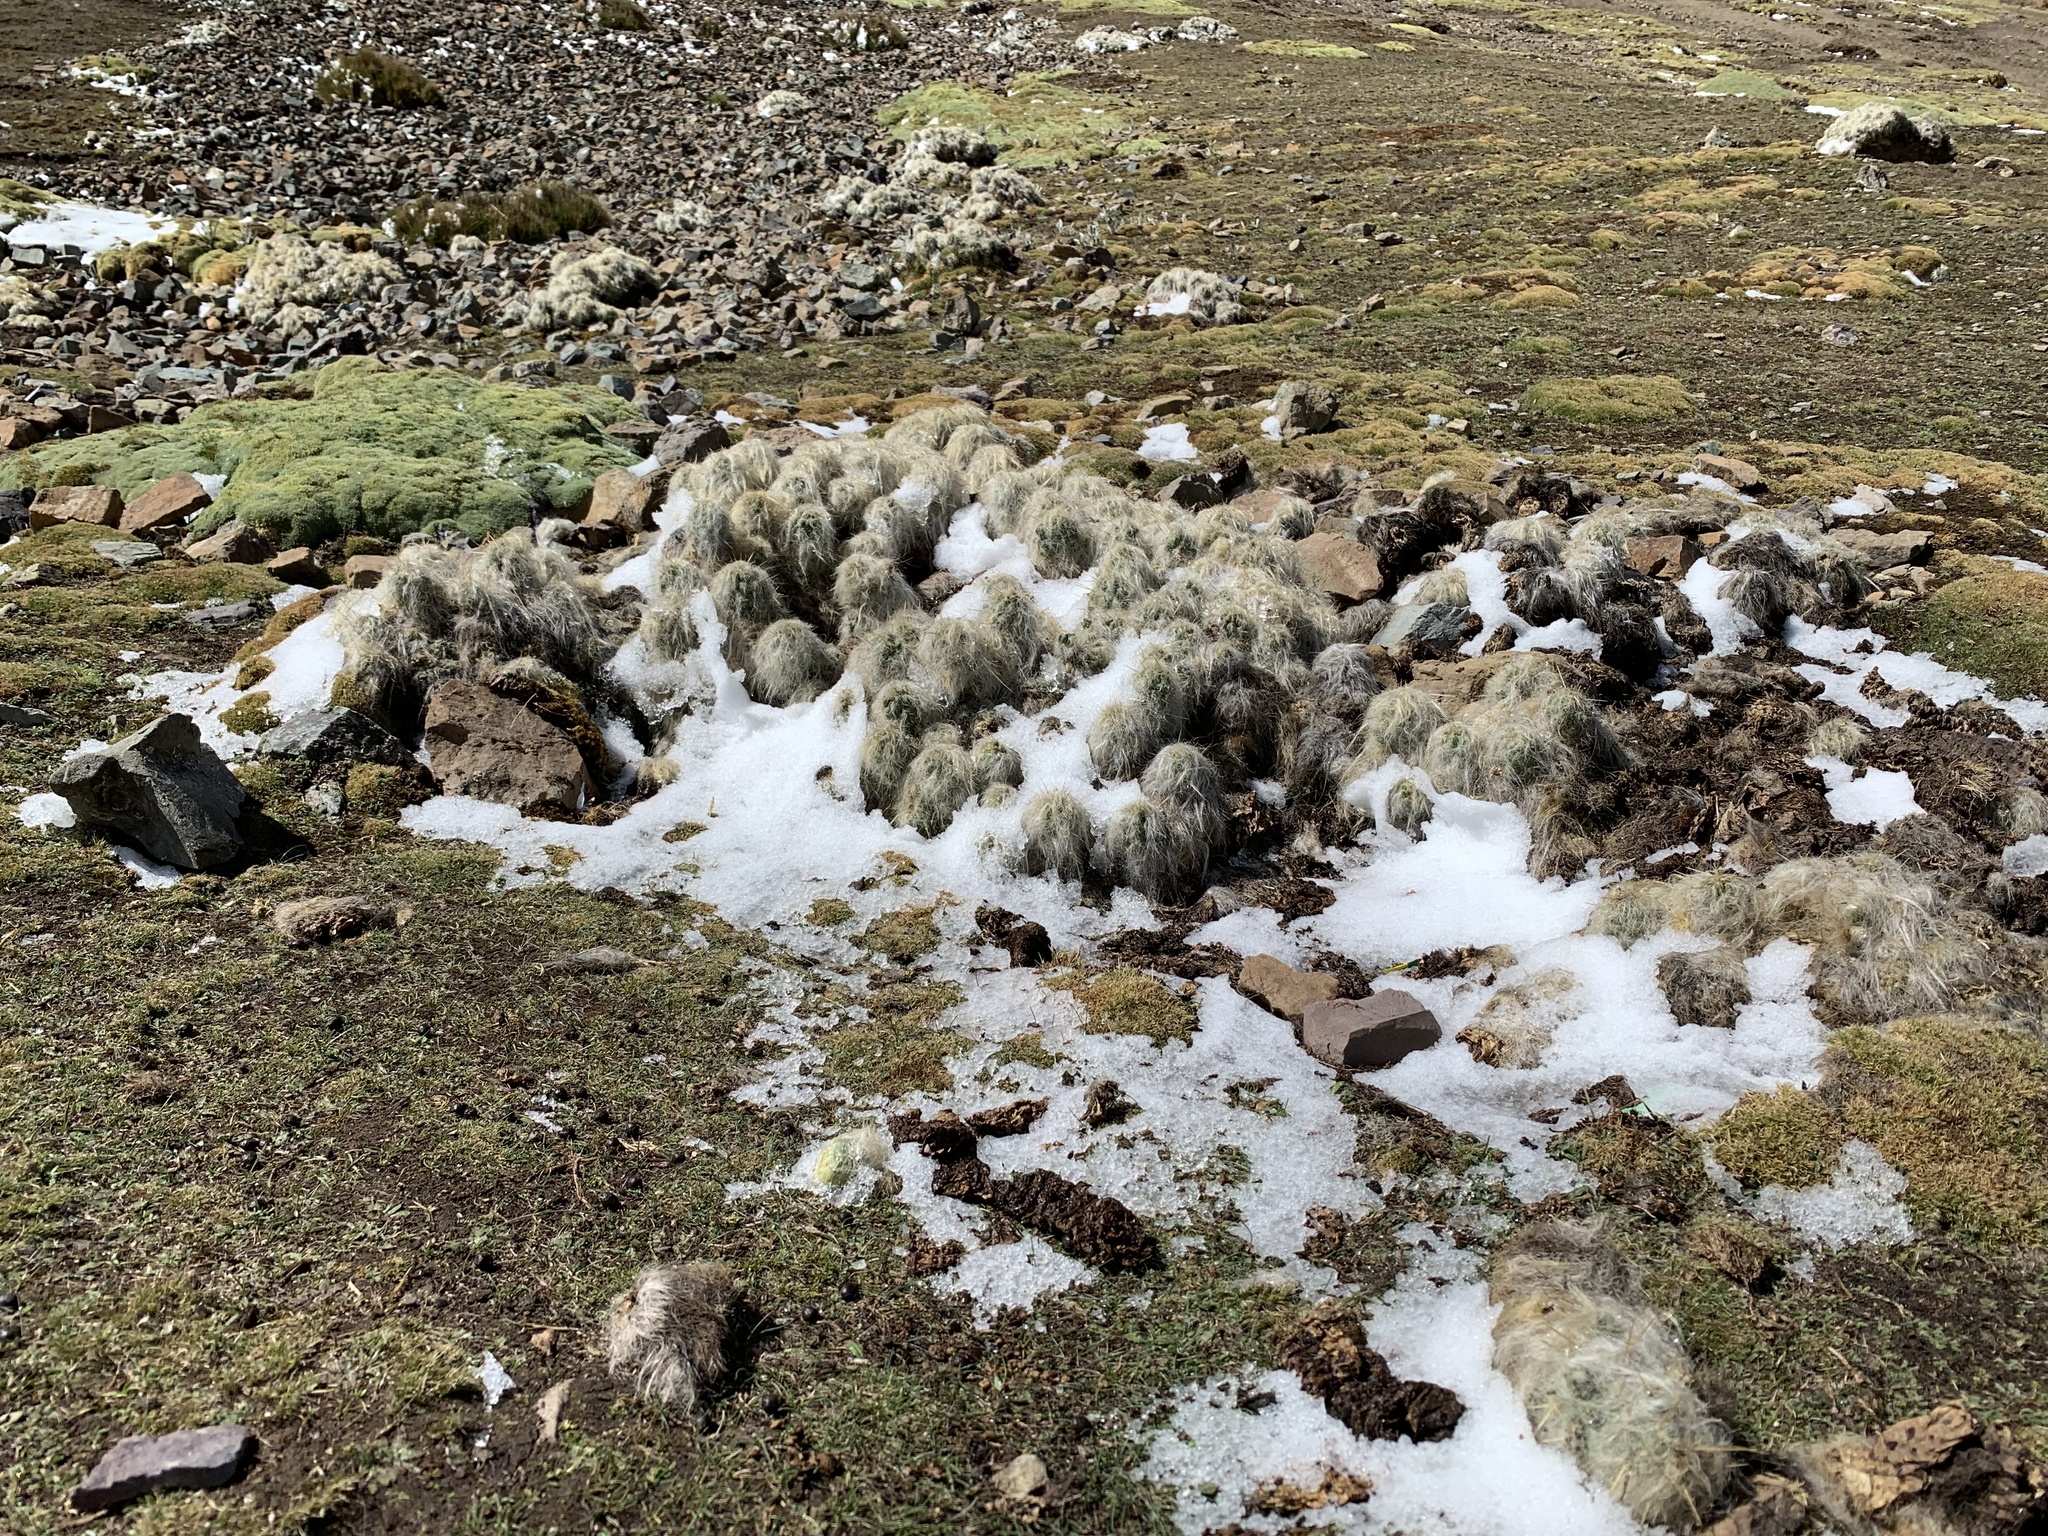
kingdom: Plantae
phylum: Tracheophyta
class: Magnoliopsida
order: Caryophyllales
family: Cactaceae
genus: Austrocylindropuntia
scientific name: Austrocylindropuntia floccosa
